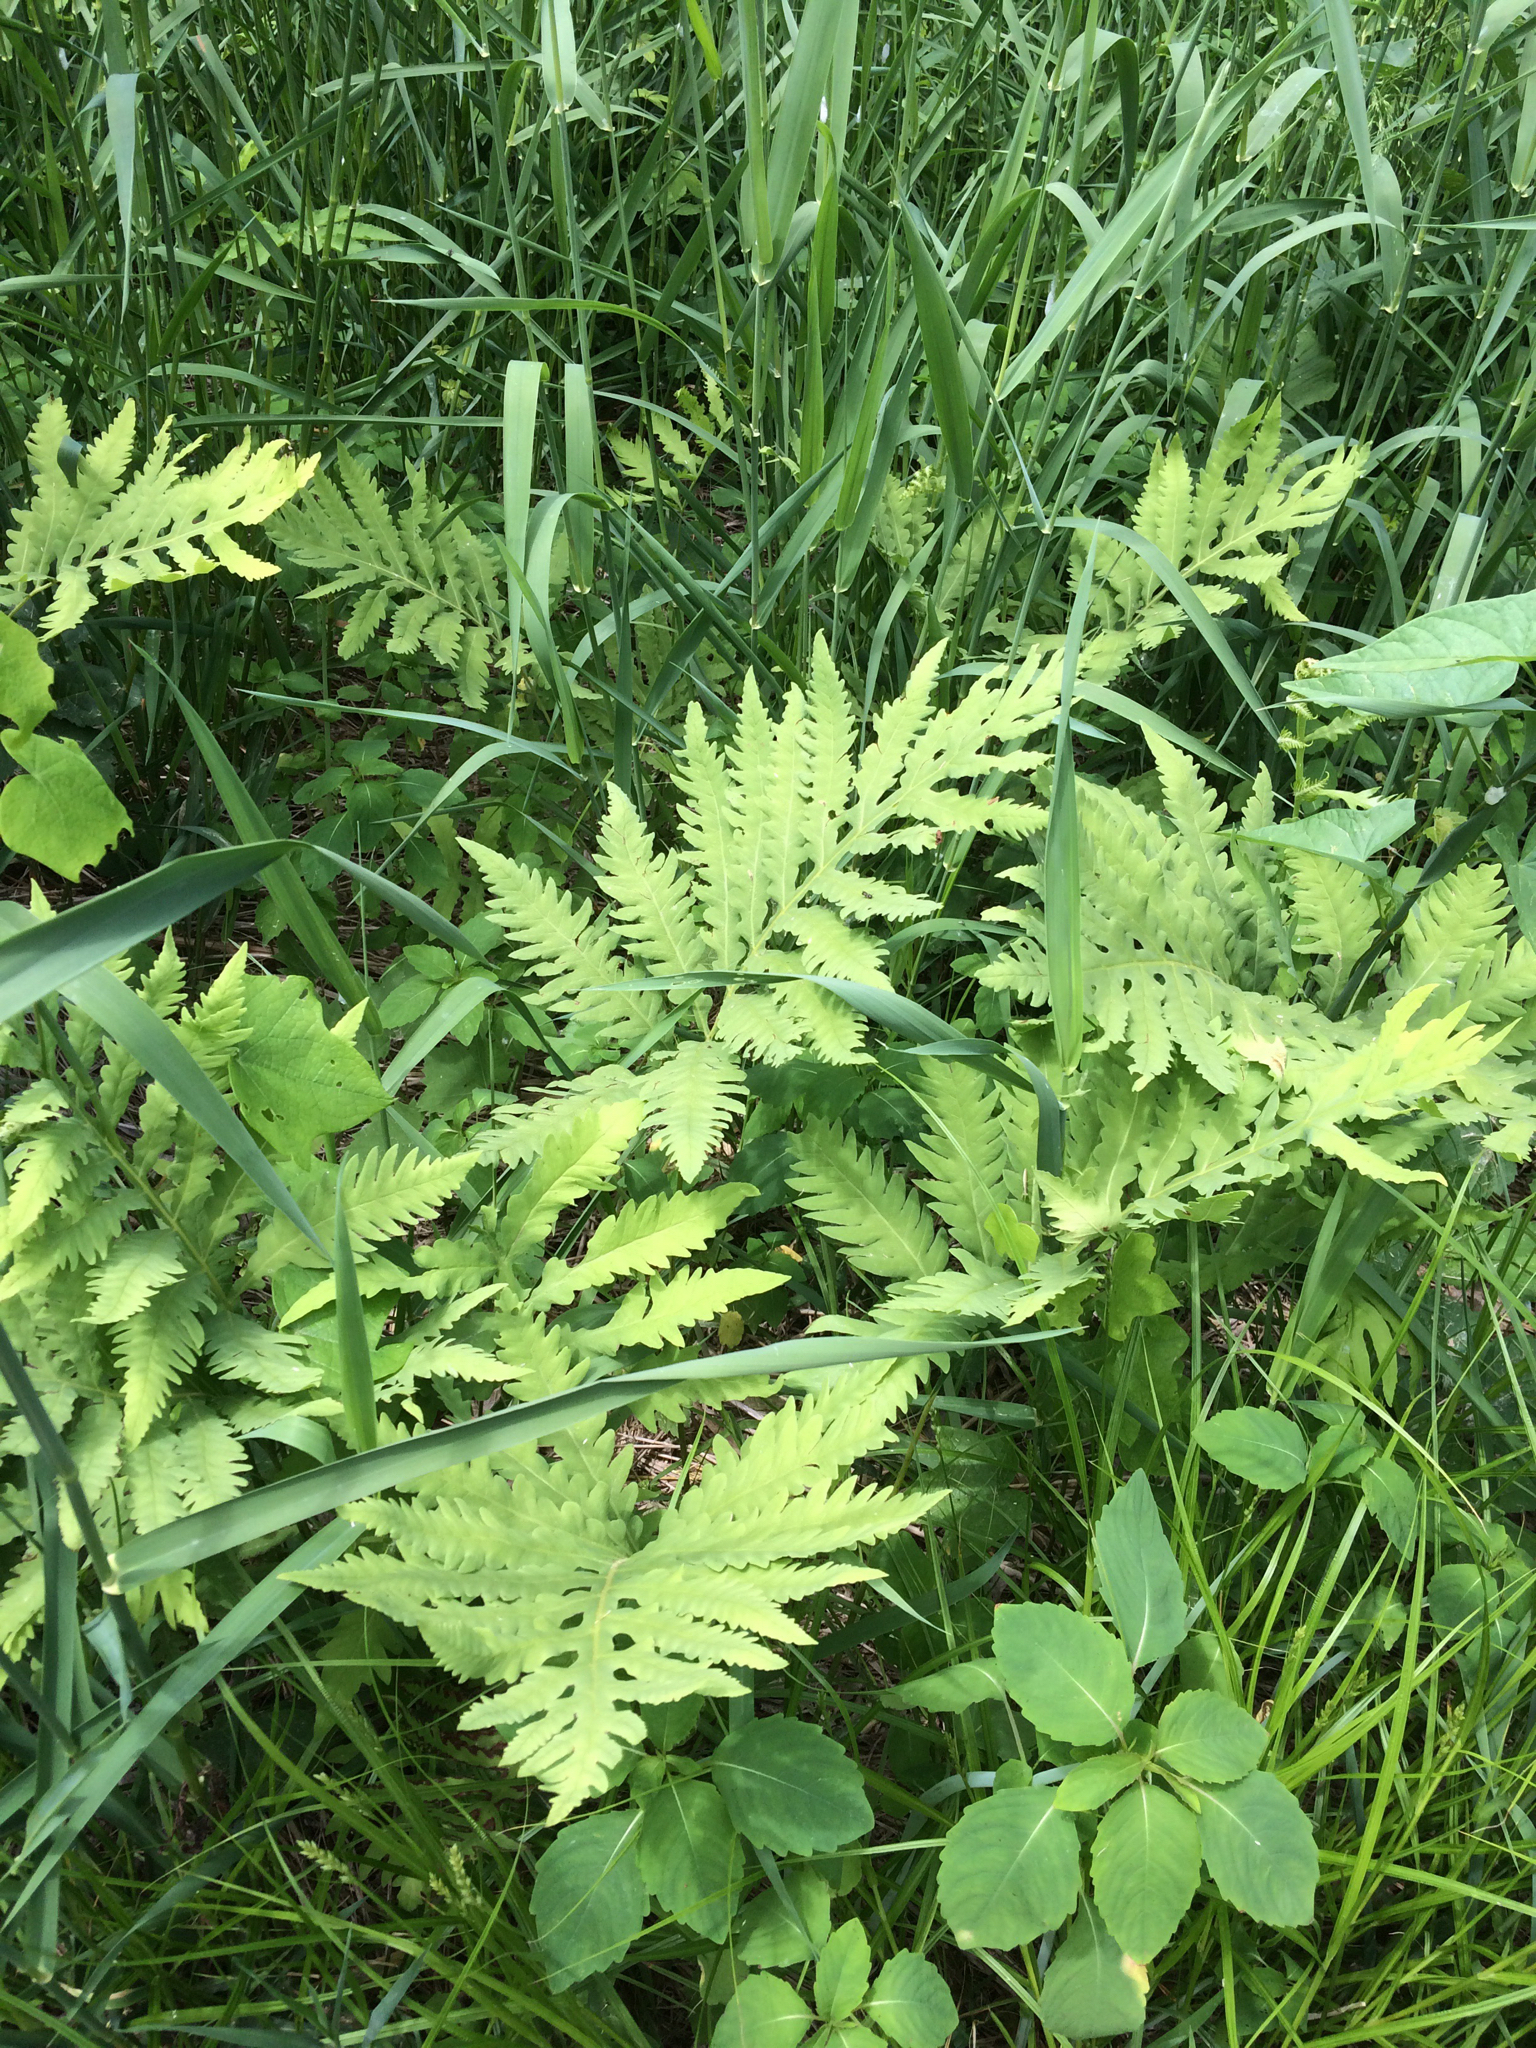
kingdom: Plantae
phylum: Tracheophyta
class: Polypodiopsida
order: Polypodiales
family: Onocleaceae
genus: Onoclea
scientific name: Onoclea sensibilis
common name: Sensitive fern
